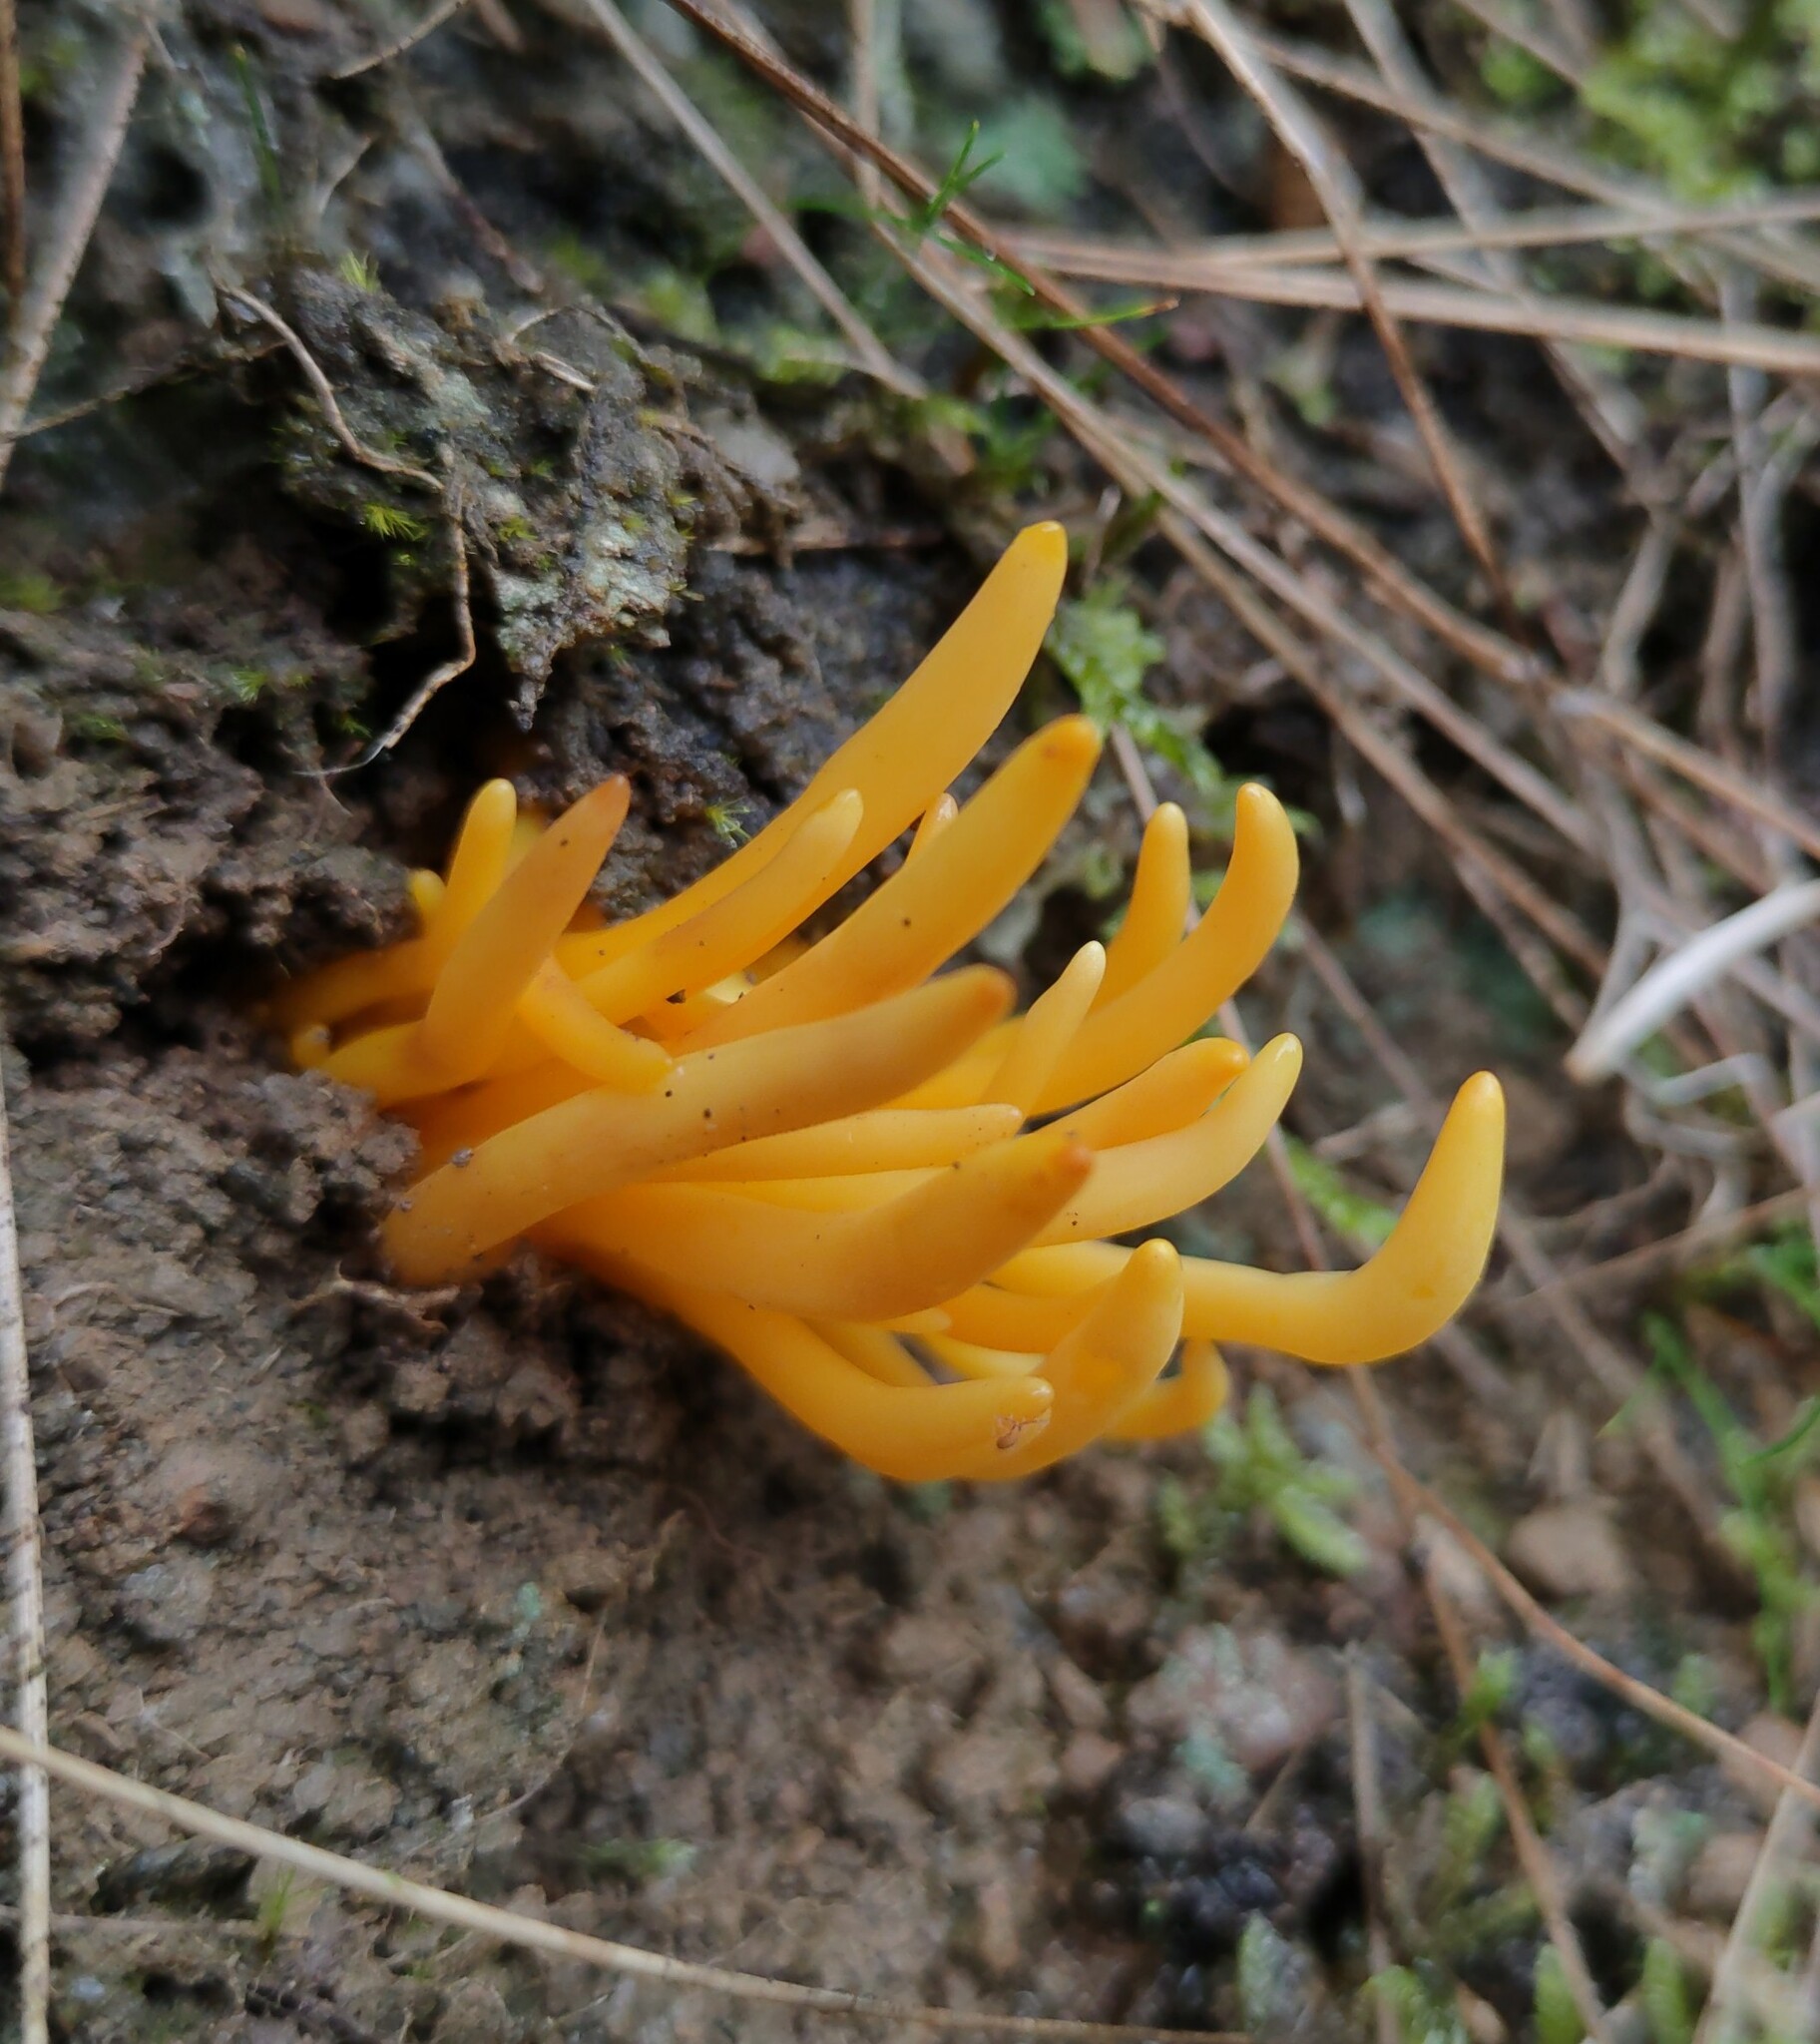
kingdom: Fungi
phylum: Basidiomycota
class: Agaricomycetes
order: Agaricales
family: Clavariaceae
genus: Clavulinopsis
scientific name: Clavulinopsis fusiformis
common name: Golden spindles
